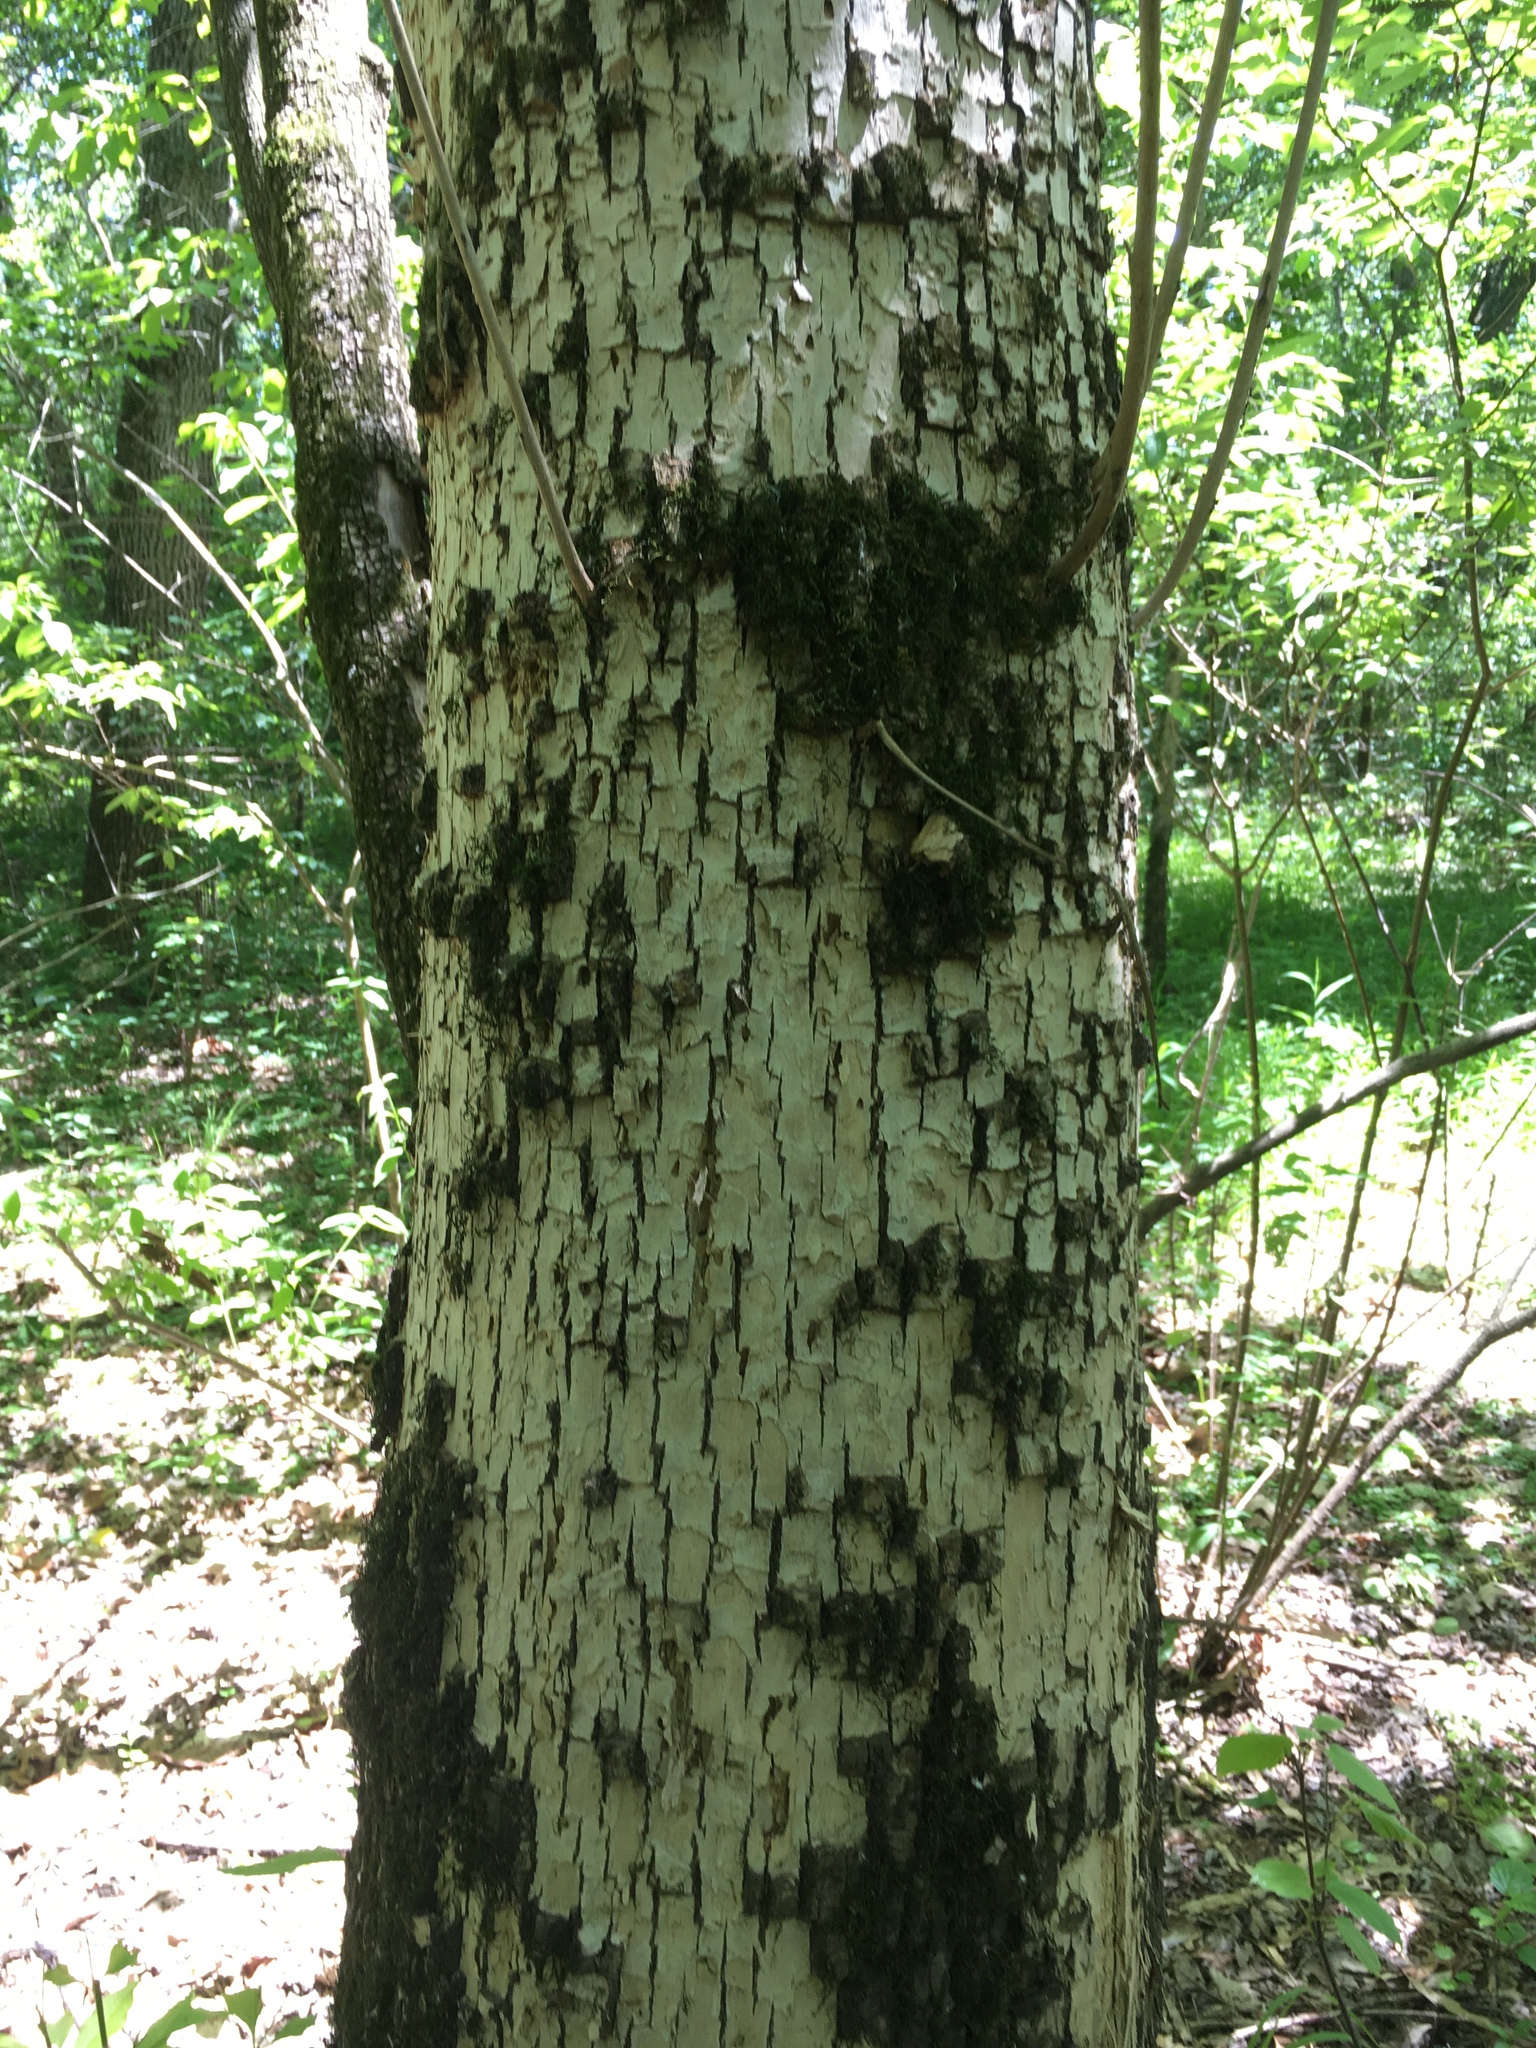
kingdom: Animalia
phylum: Arthropoda
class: Insecta
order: Coleoptera
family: Buprestidae
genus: Agrilus
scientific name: Agrilus planipennis
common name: Emerald ash borer
